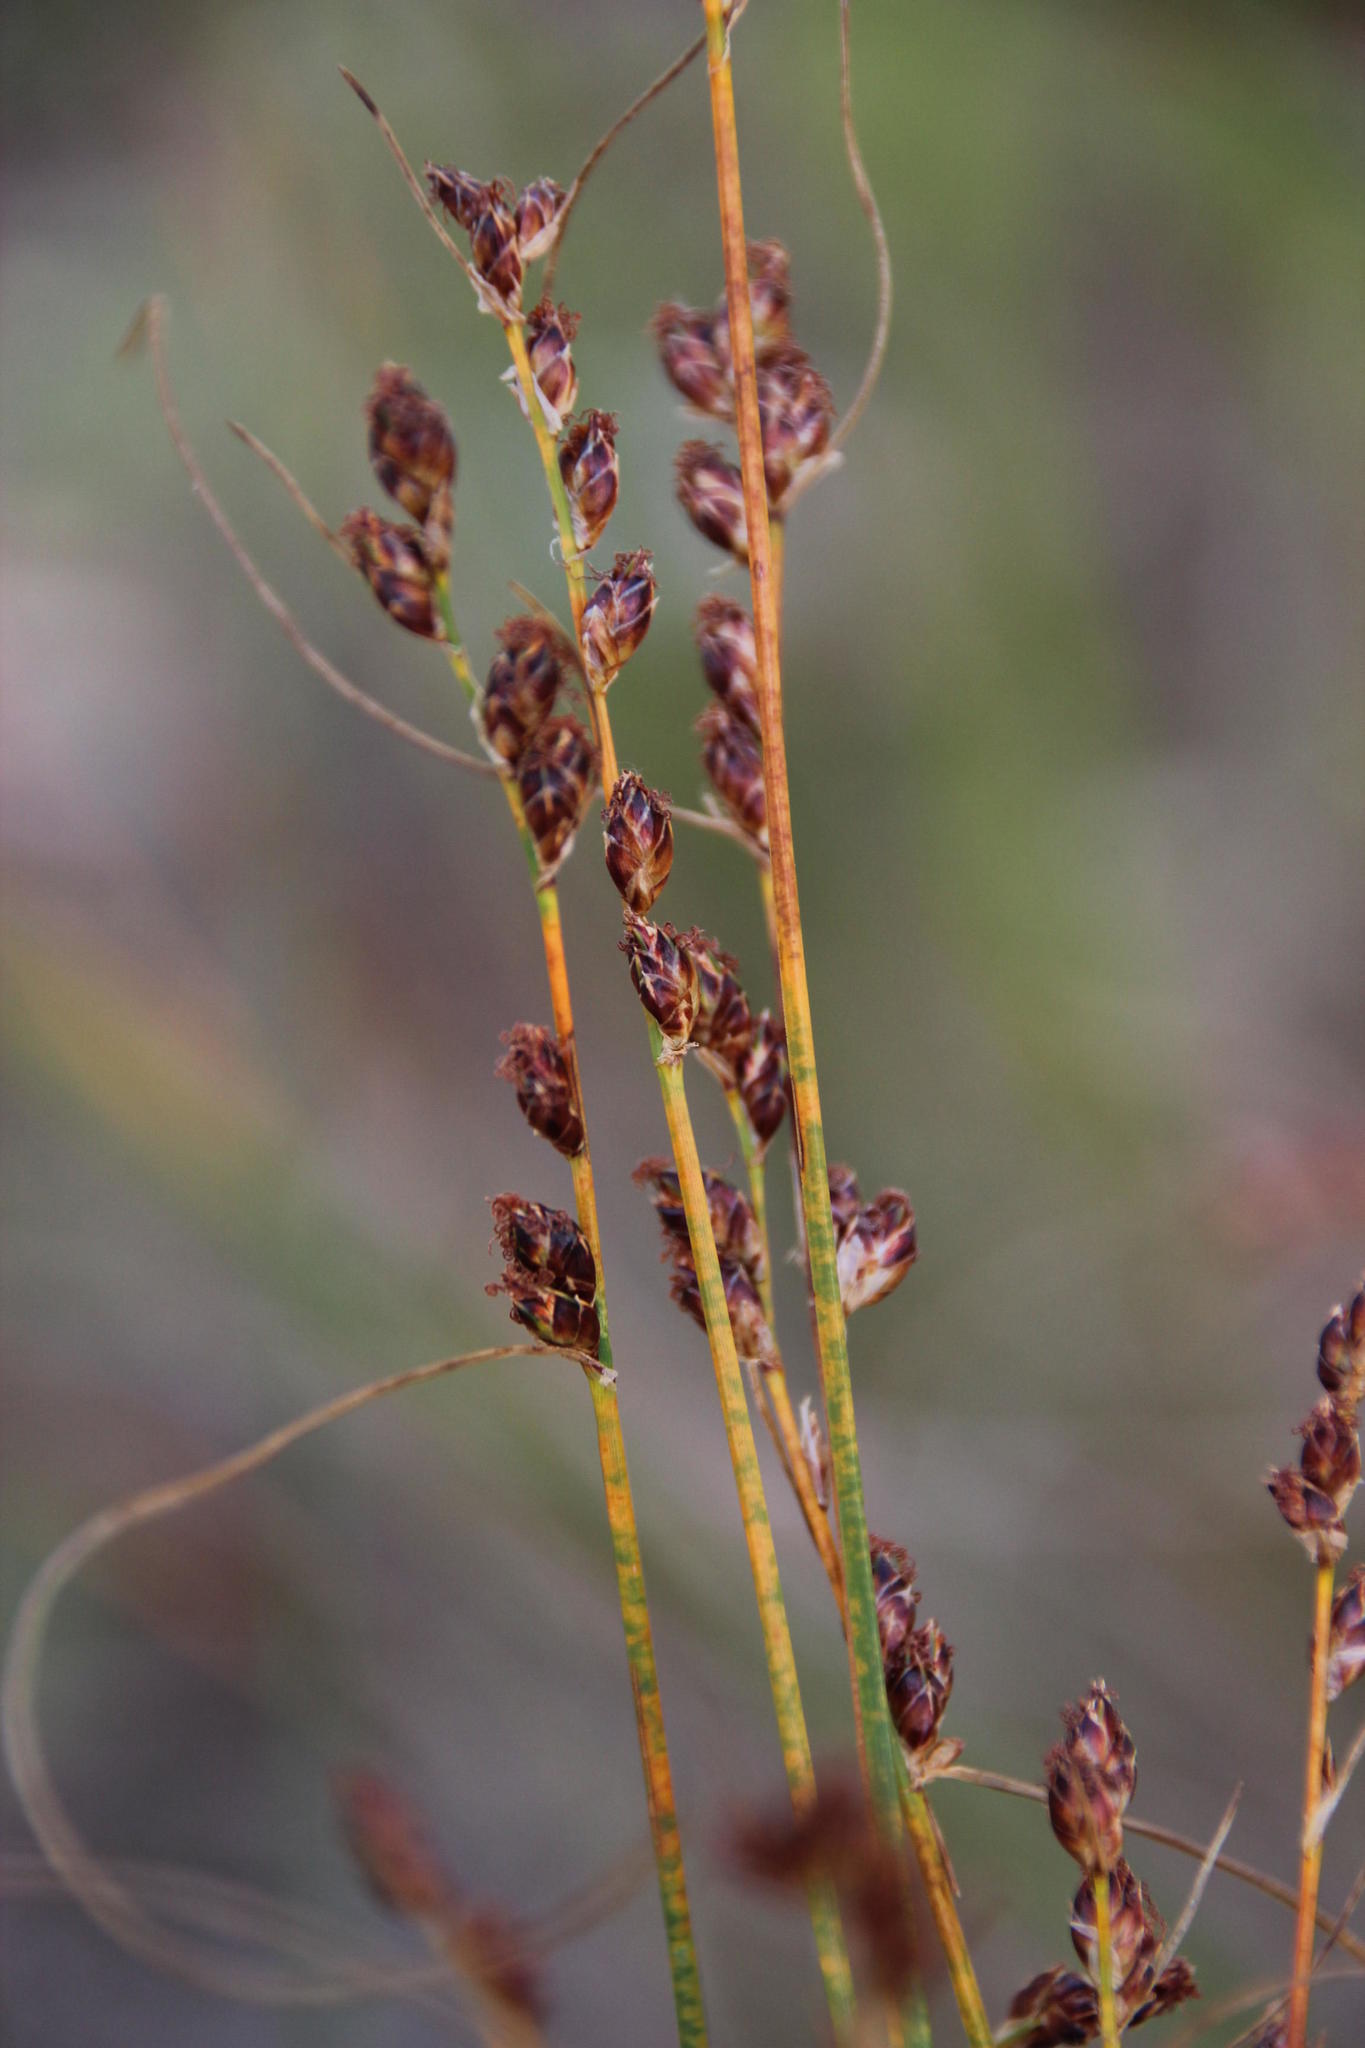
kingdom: Plantae
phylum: Tracheophyta
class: Liliopsida
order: Poales
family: Cyperaceae
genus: Ficinia
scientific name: Ficinia secunda
